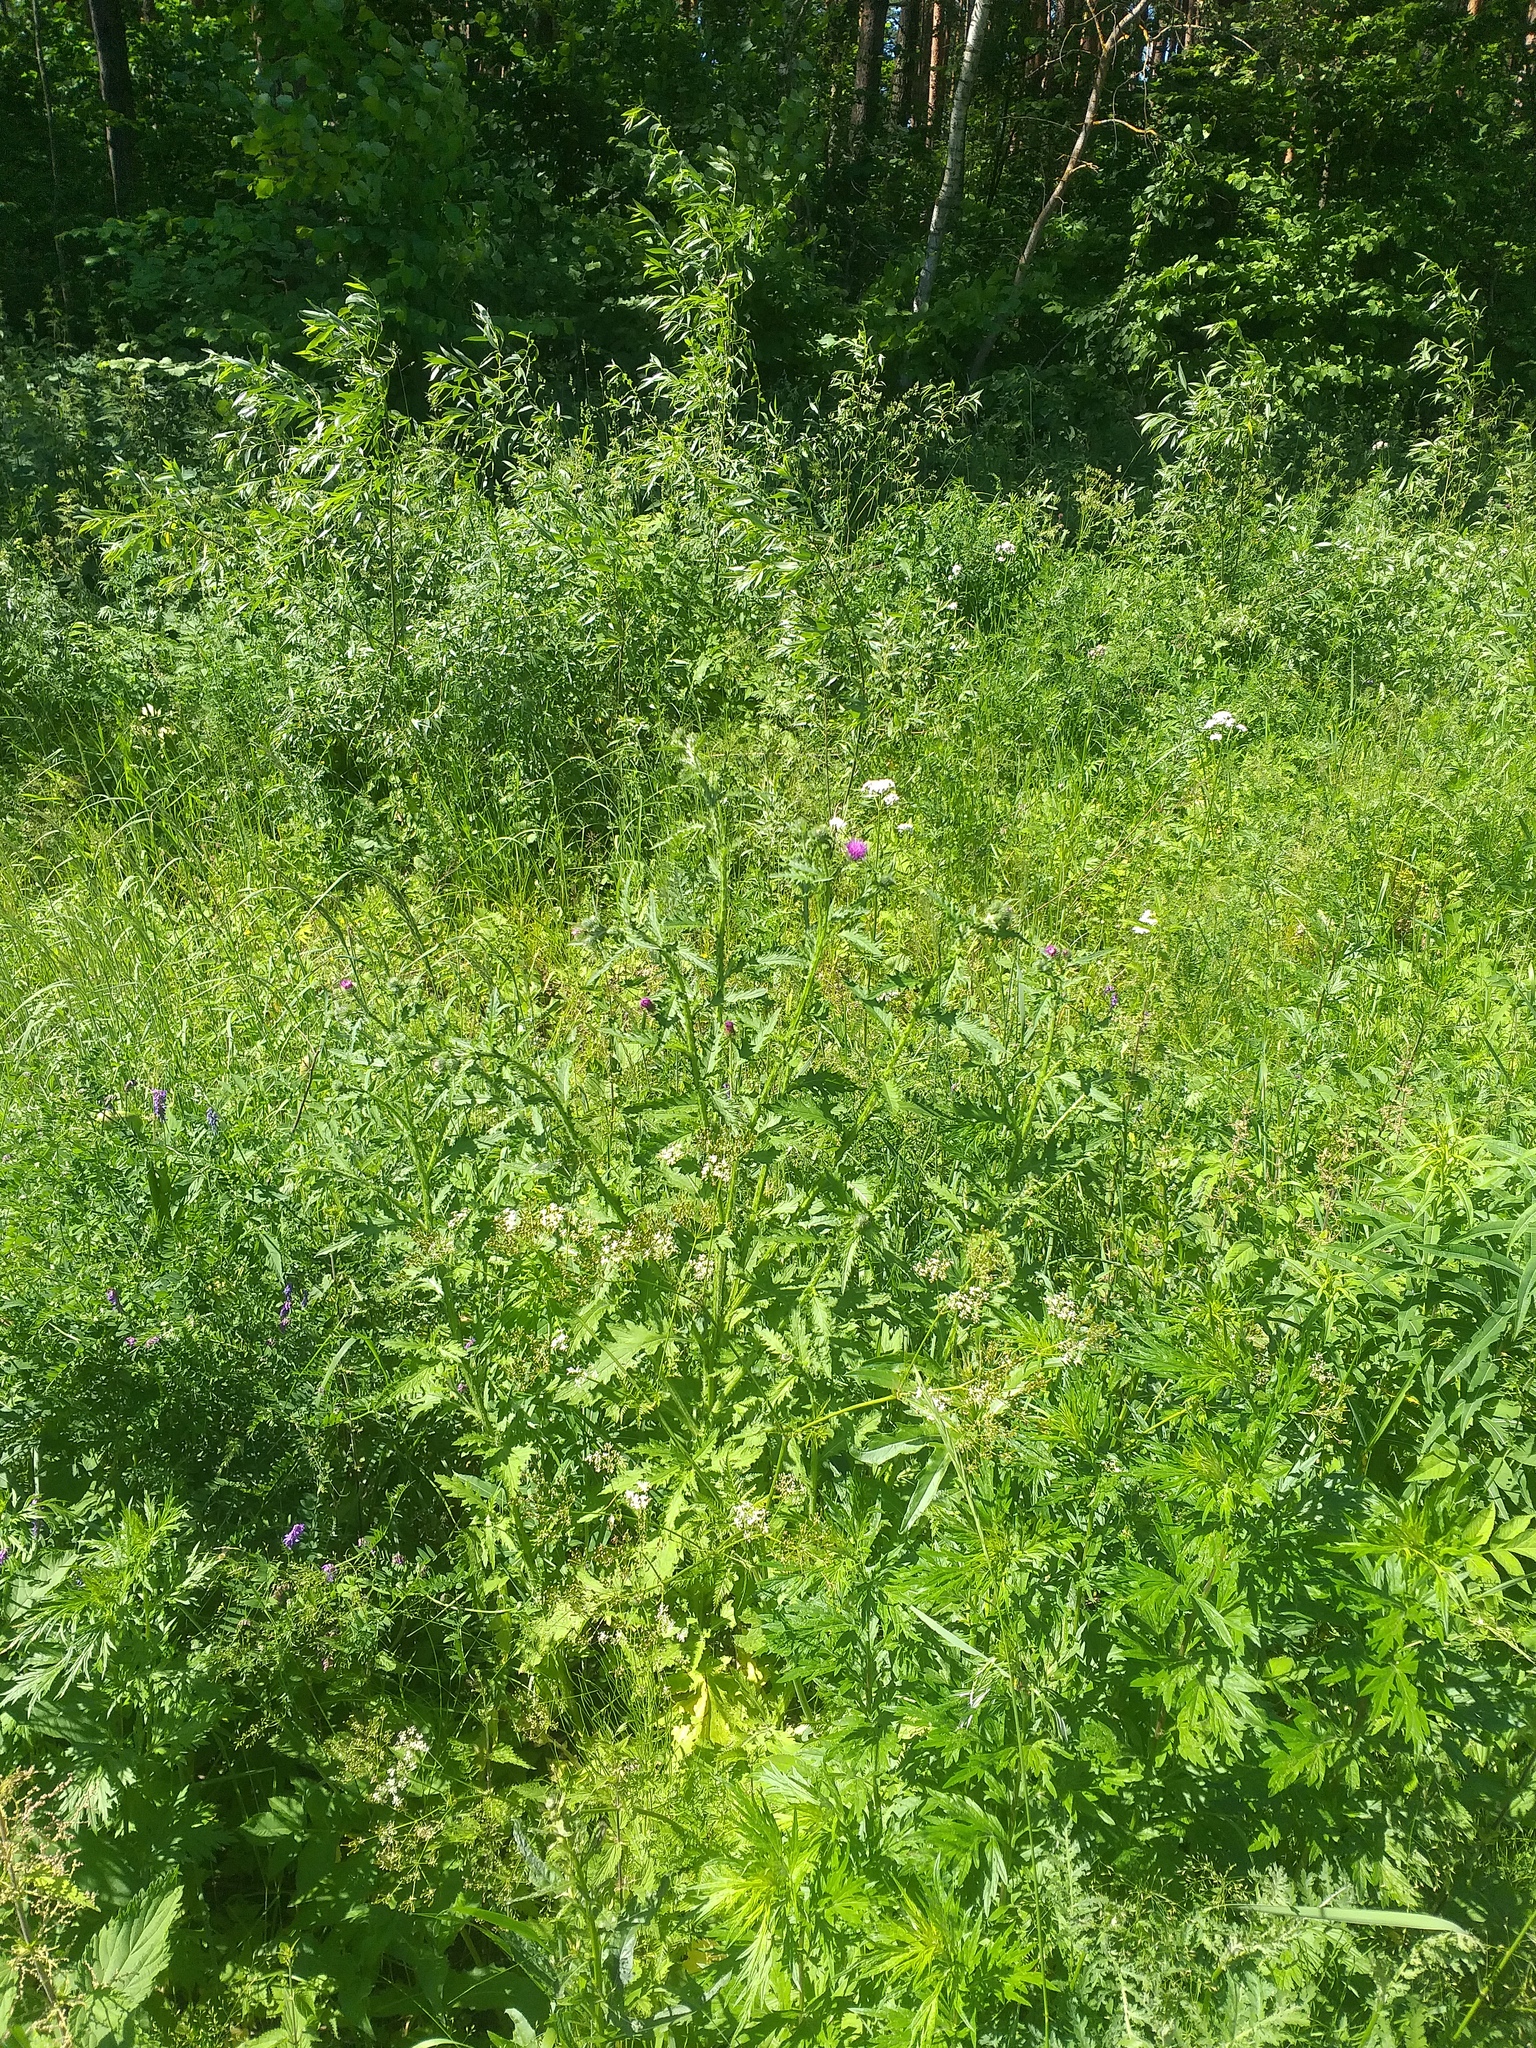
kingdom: Plantae
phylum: Tracheophyta
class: Magnoliopsida
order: Asterales
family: Asteraceae
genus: Carduus
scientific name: Carduus crispus
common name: Welted thistle
